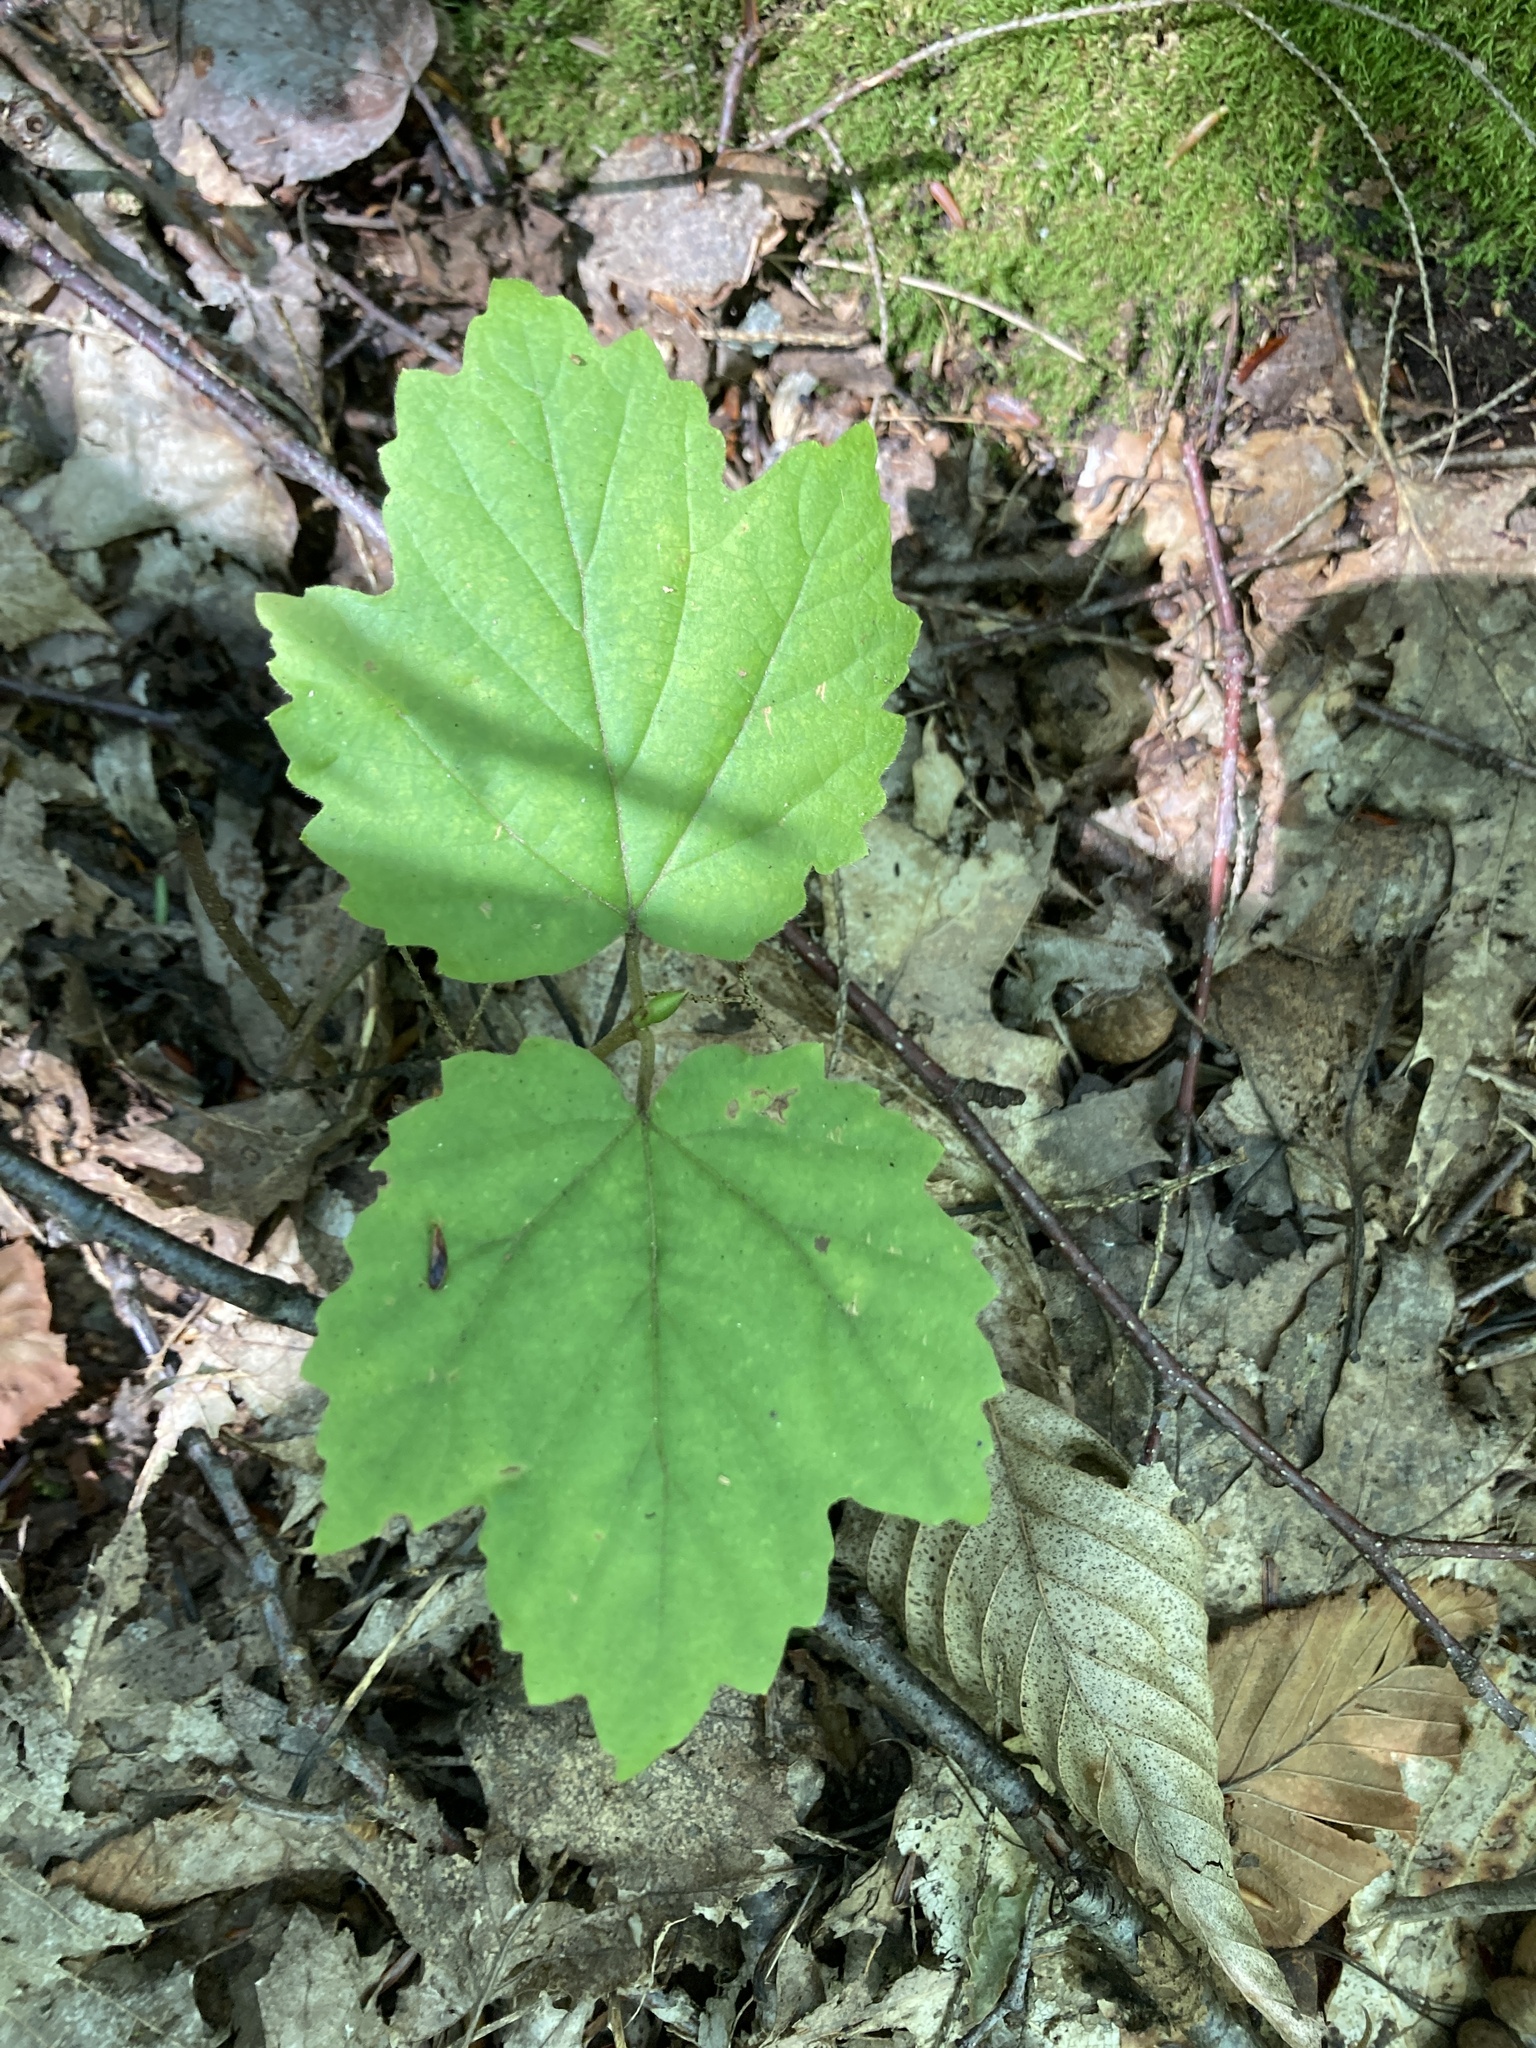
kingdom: Plantae
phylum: Tracheophyta
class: Magnoliopsida
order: Dipsacales
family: Viburnaceae
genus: Viburnum
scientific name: Viburnum acerifolium
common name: Dockmackie
